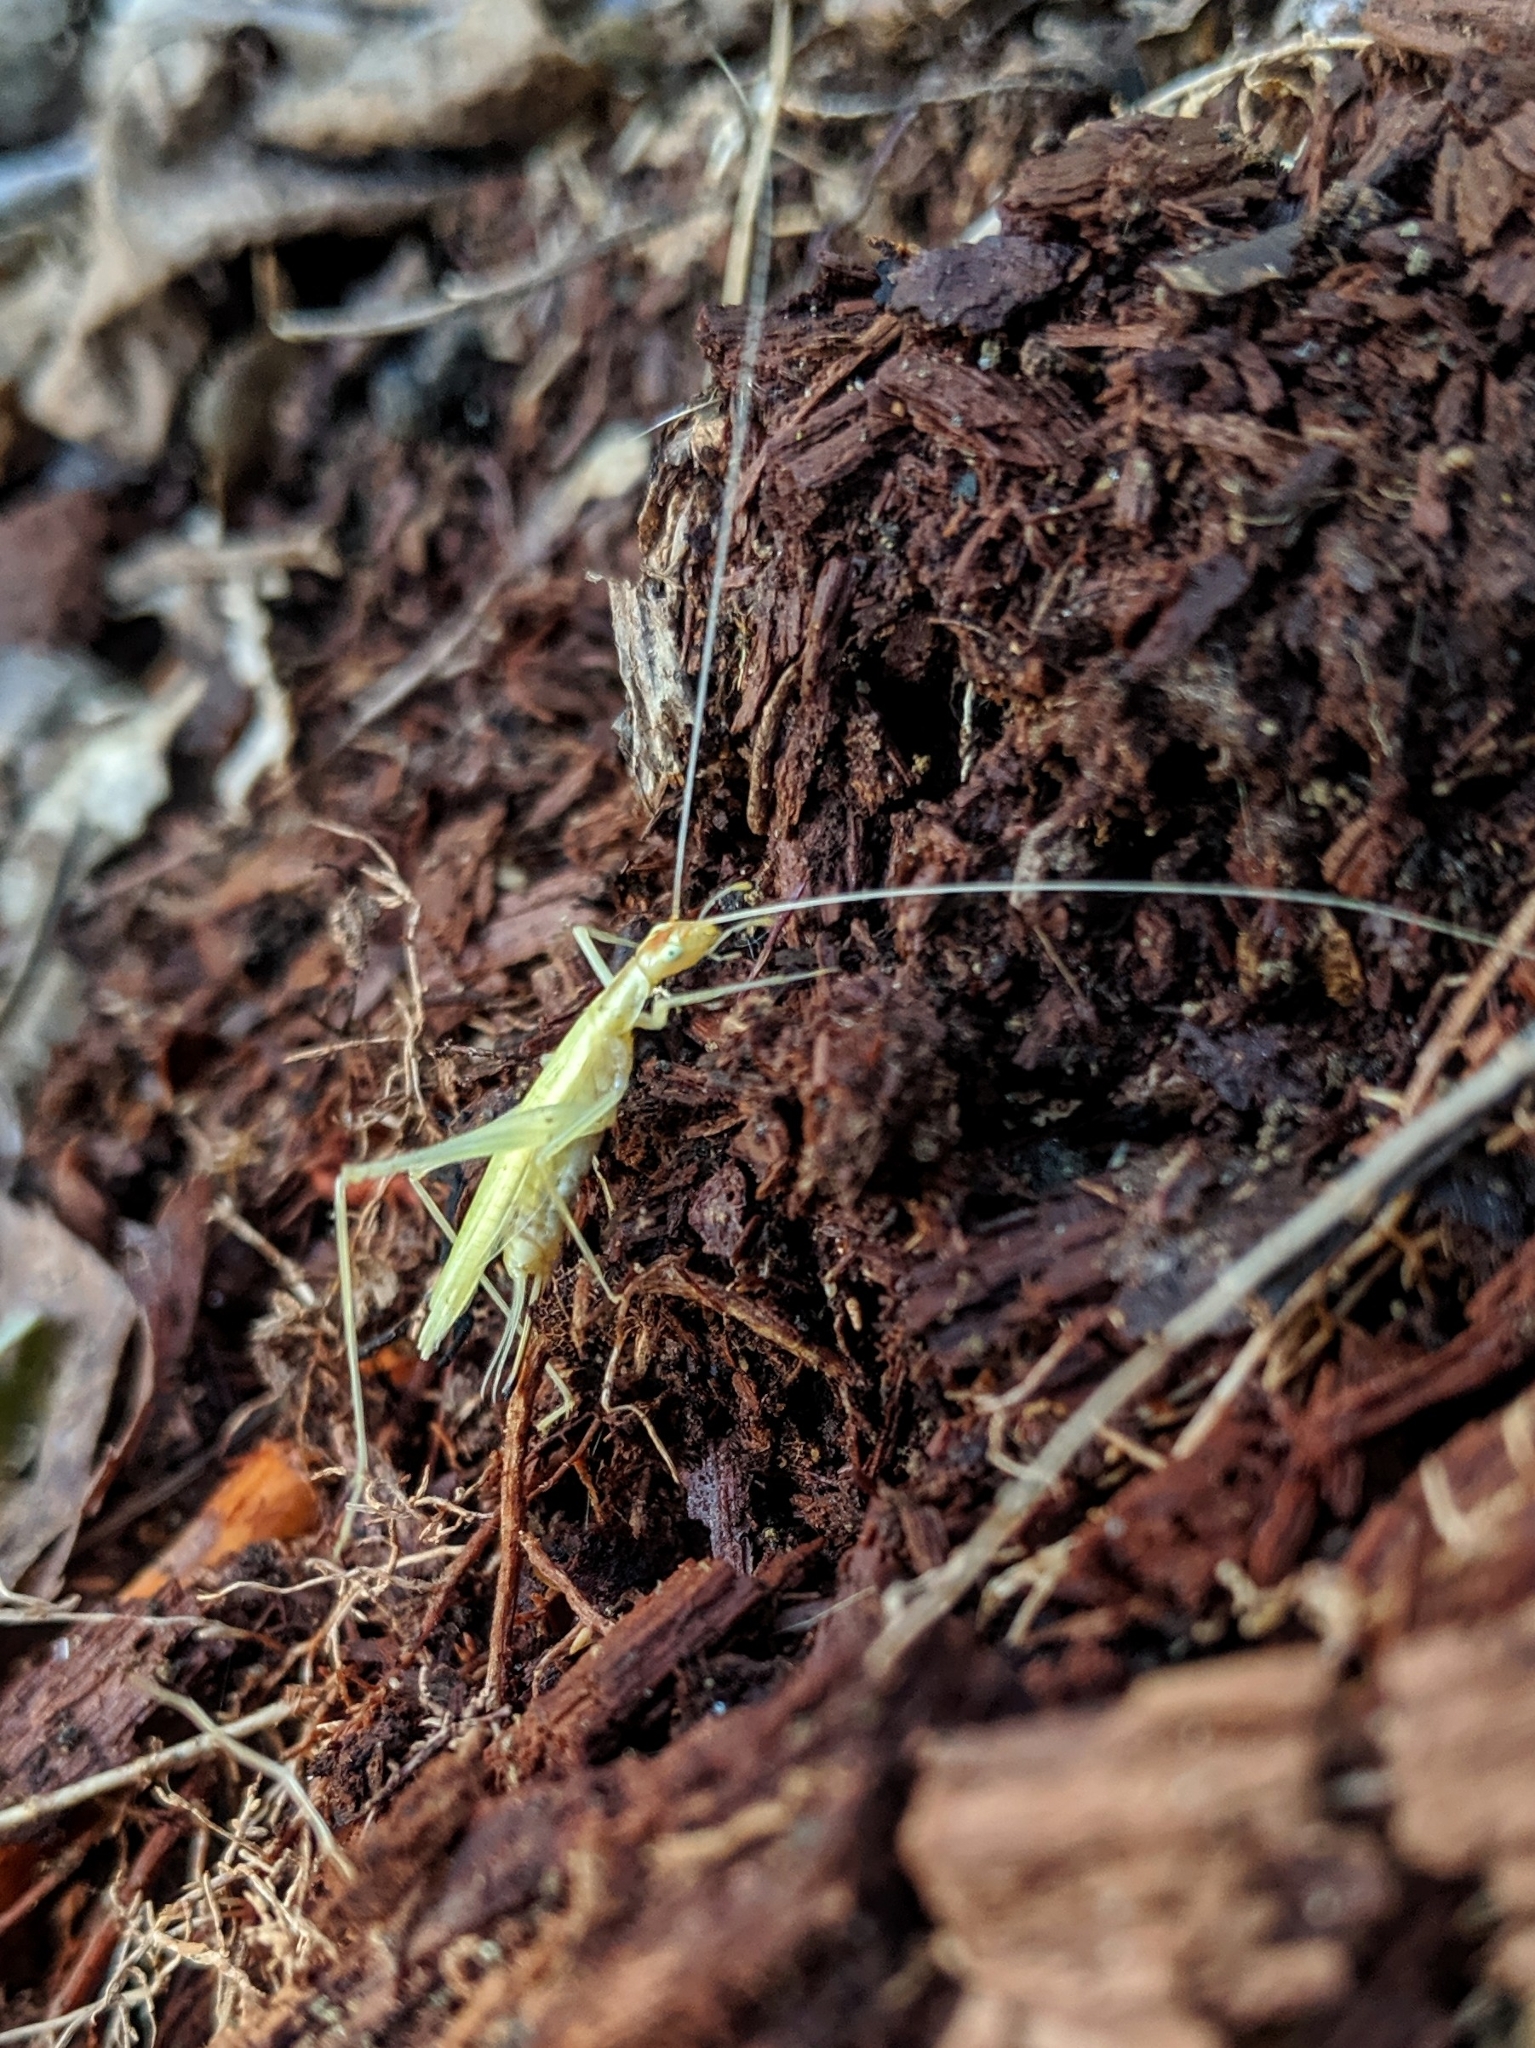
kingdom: Animalia
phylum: Arthropoda
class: Insecta
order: Orthoptera
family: Gryllidae
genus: Oecanthus
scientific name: Oecanthus niveus
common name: Narrow-winged tree cricket
